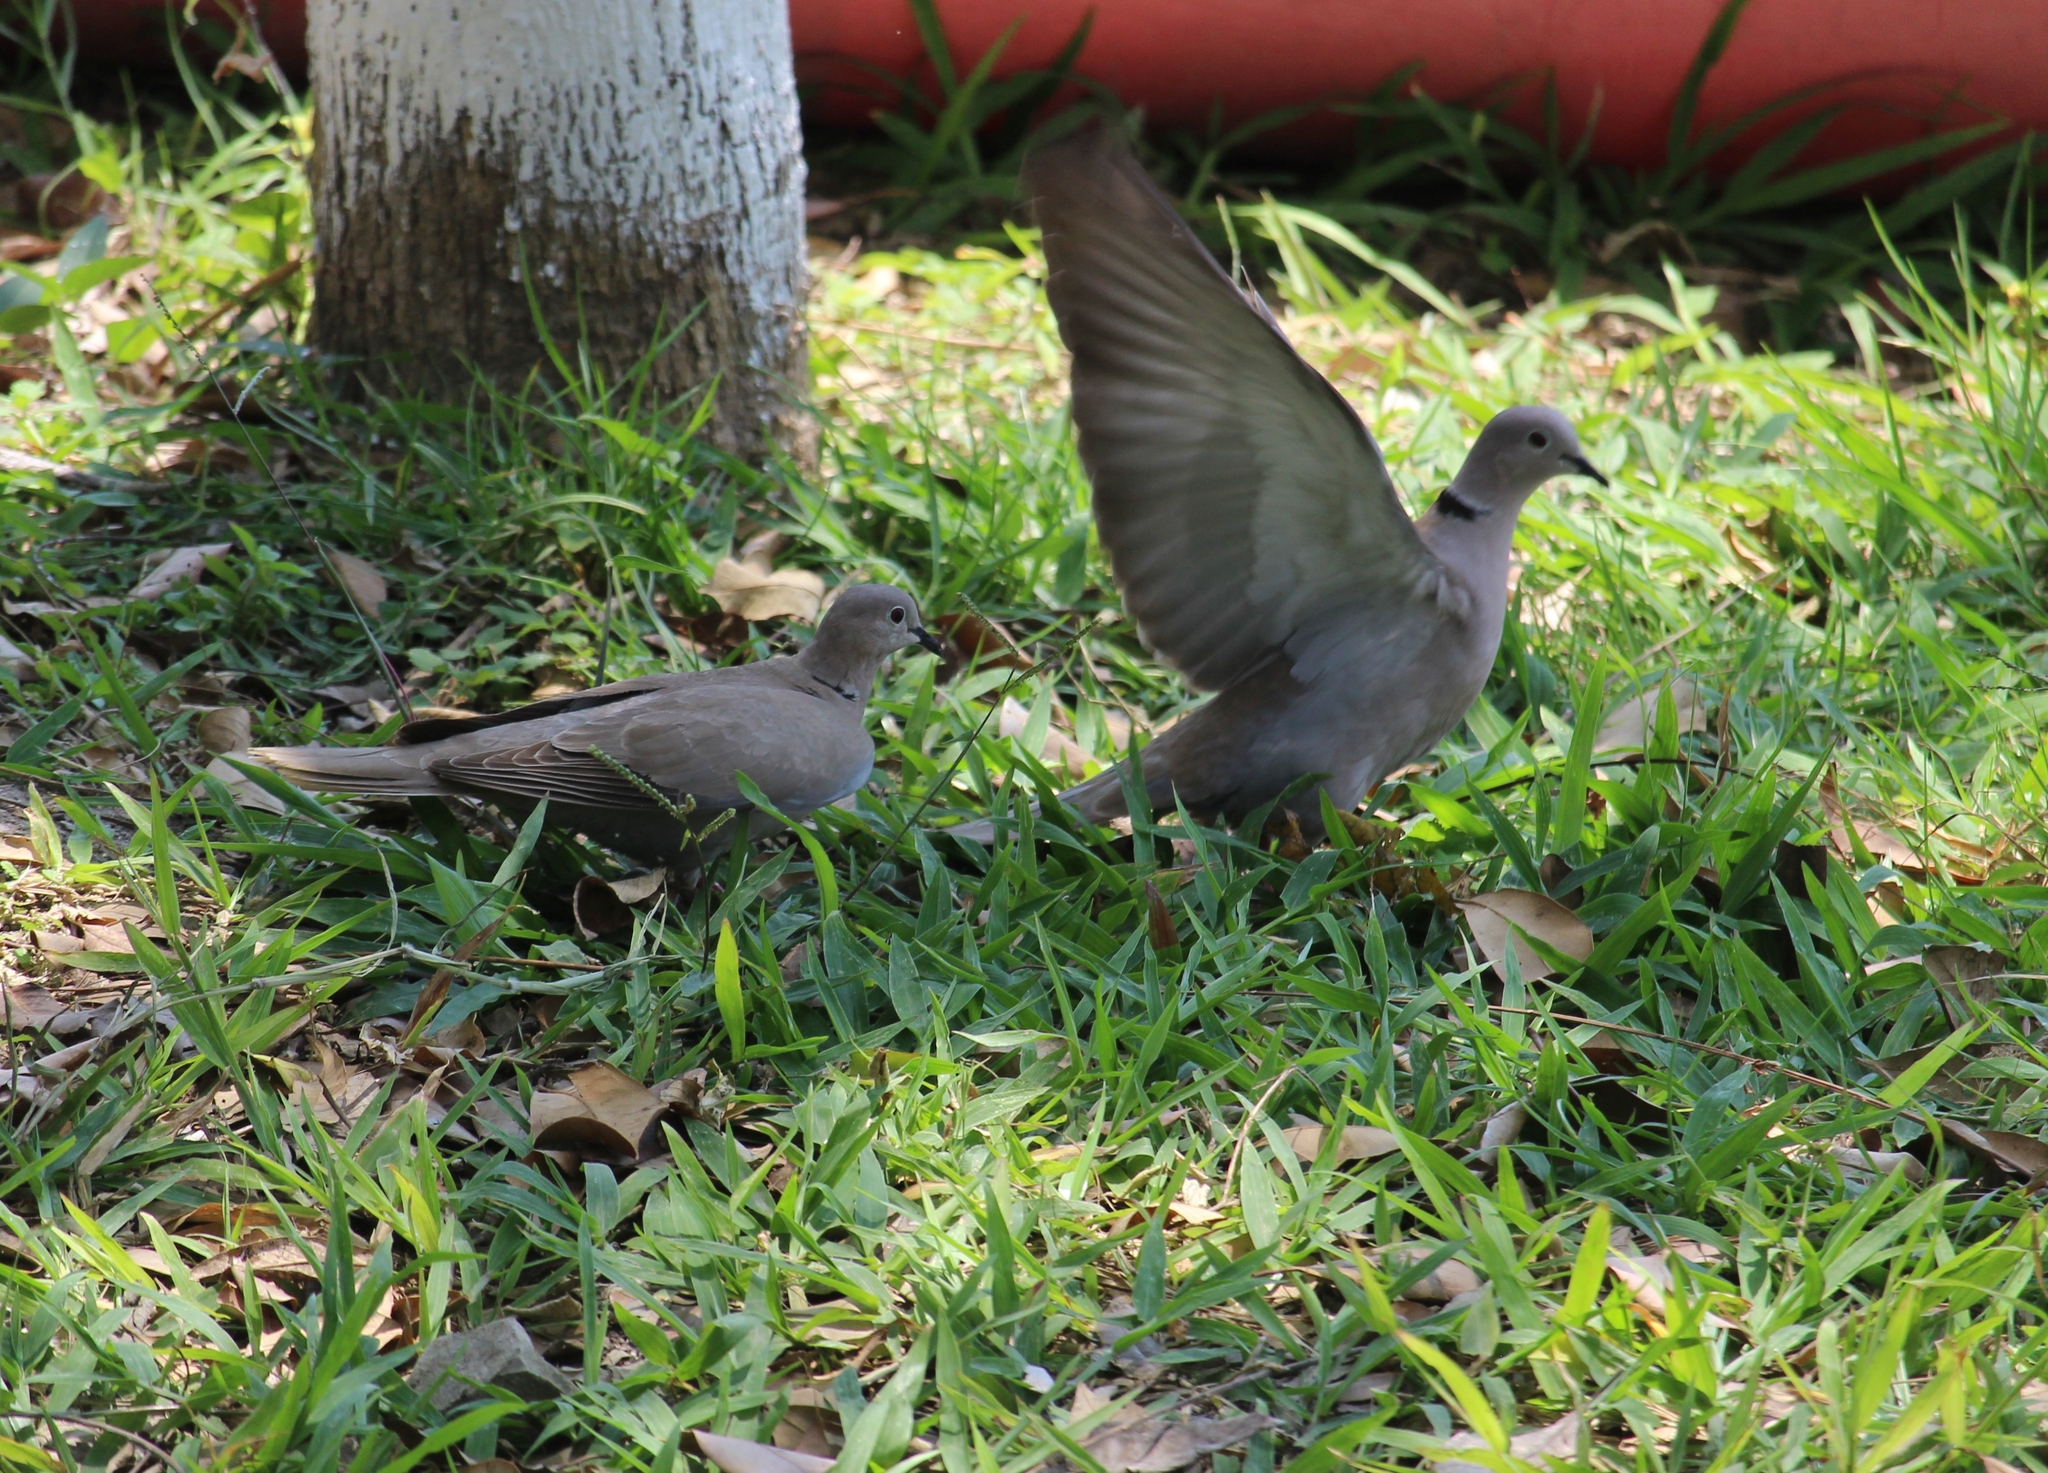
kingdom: Animalia
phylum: Chordata
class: Aves
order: Columbiformes
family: Columbidae
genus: Streptopelia
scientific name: Streptopelia decaocto
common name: Eurasian collared dove
